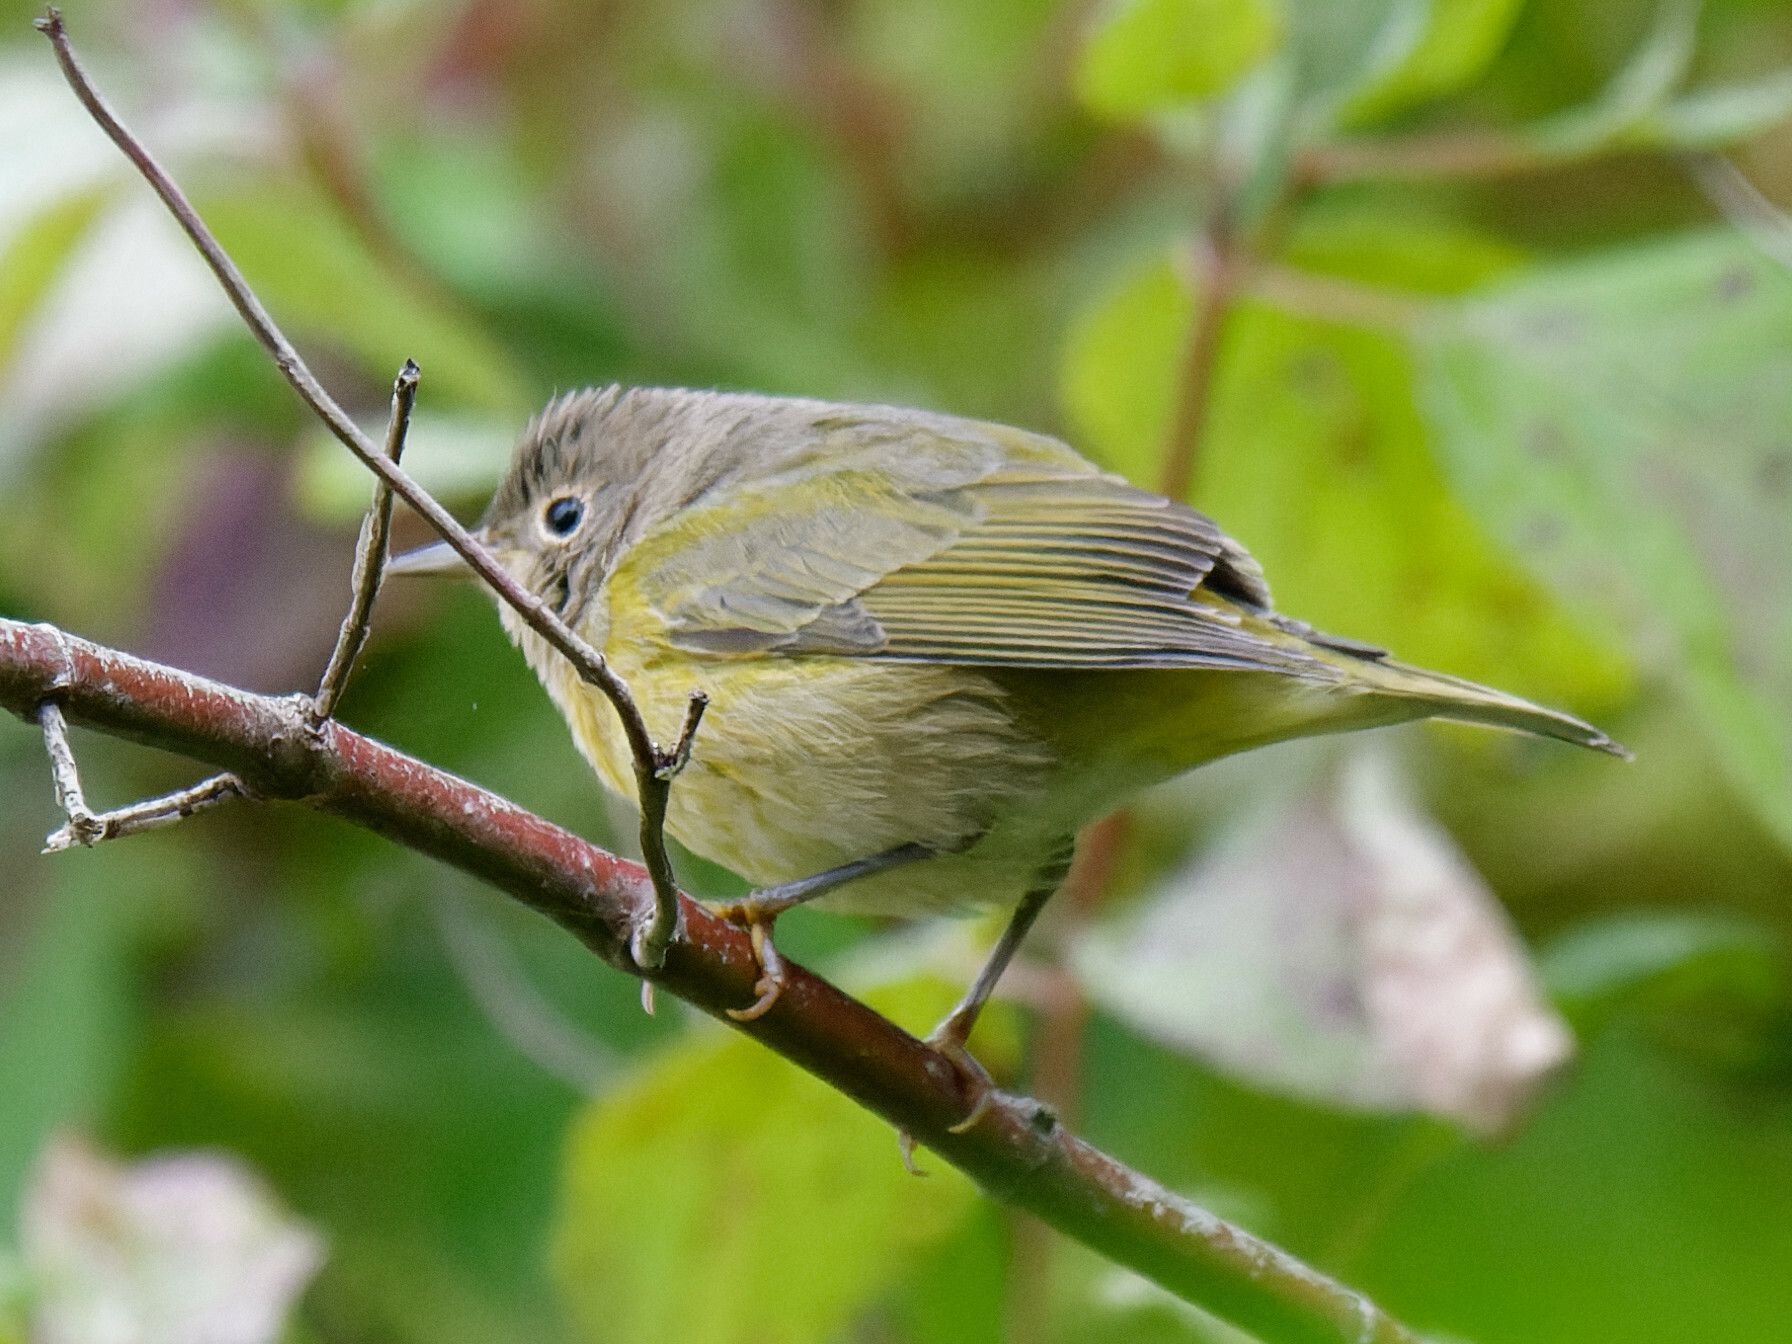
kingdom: Animalia
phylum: Chordata
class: Aves
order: Passeriformes
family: Parulidae
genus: Leiothlypis
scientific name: Leiothlypis ruficapilla
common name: Nashville warbler
